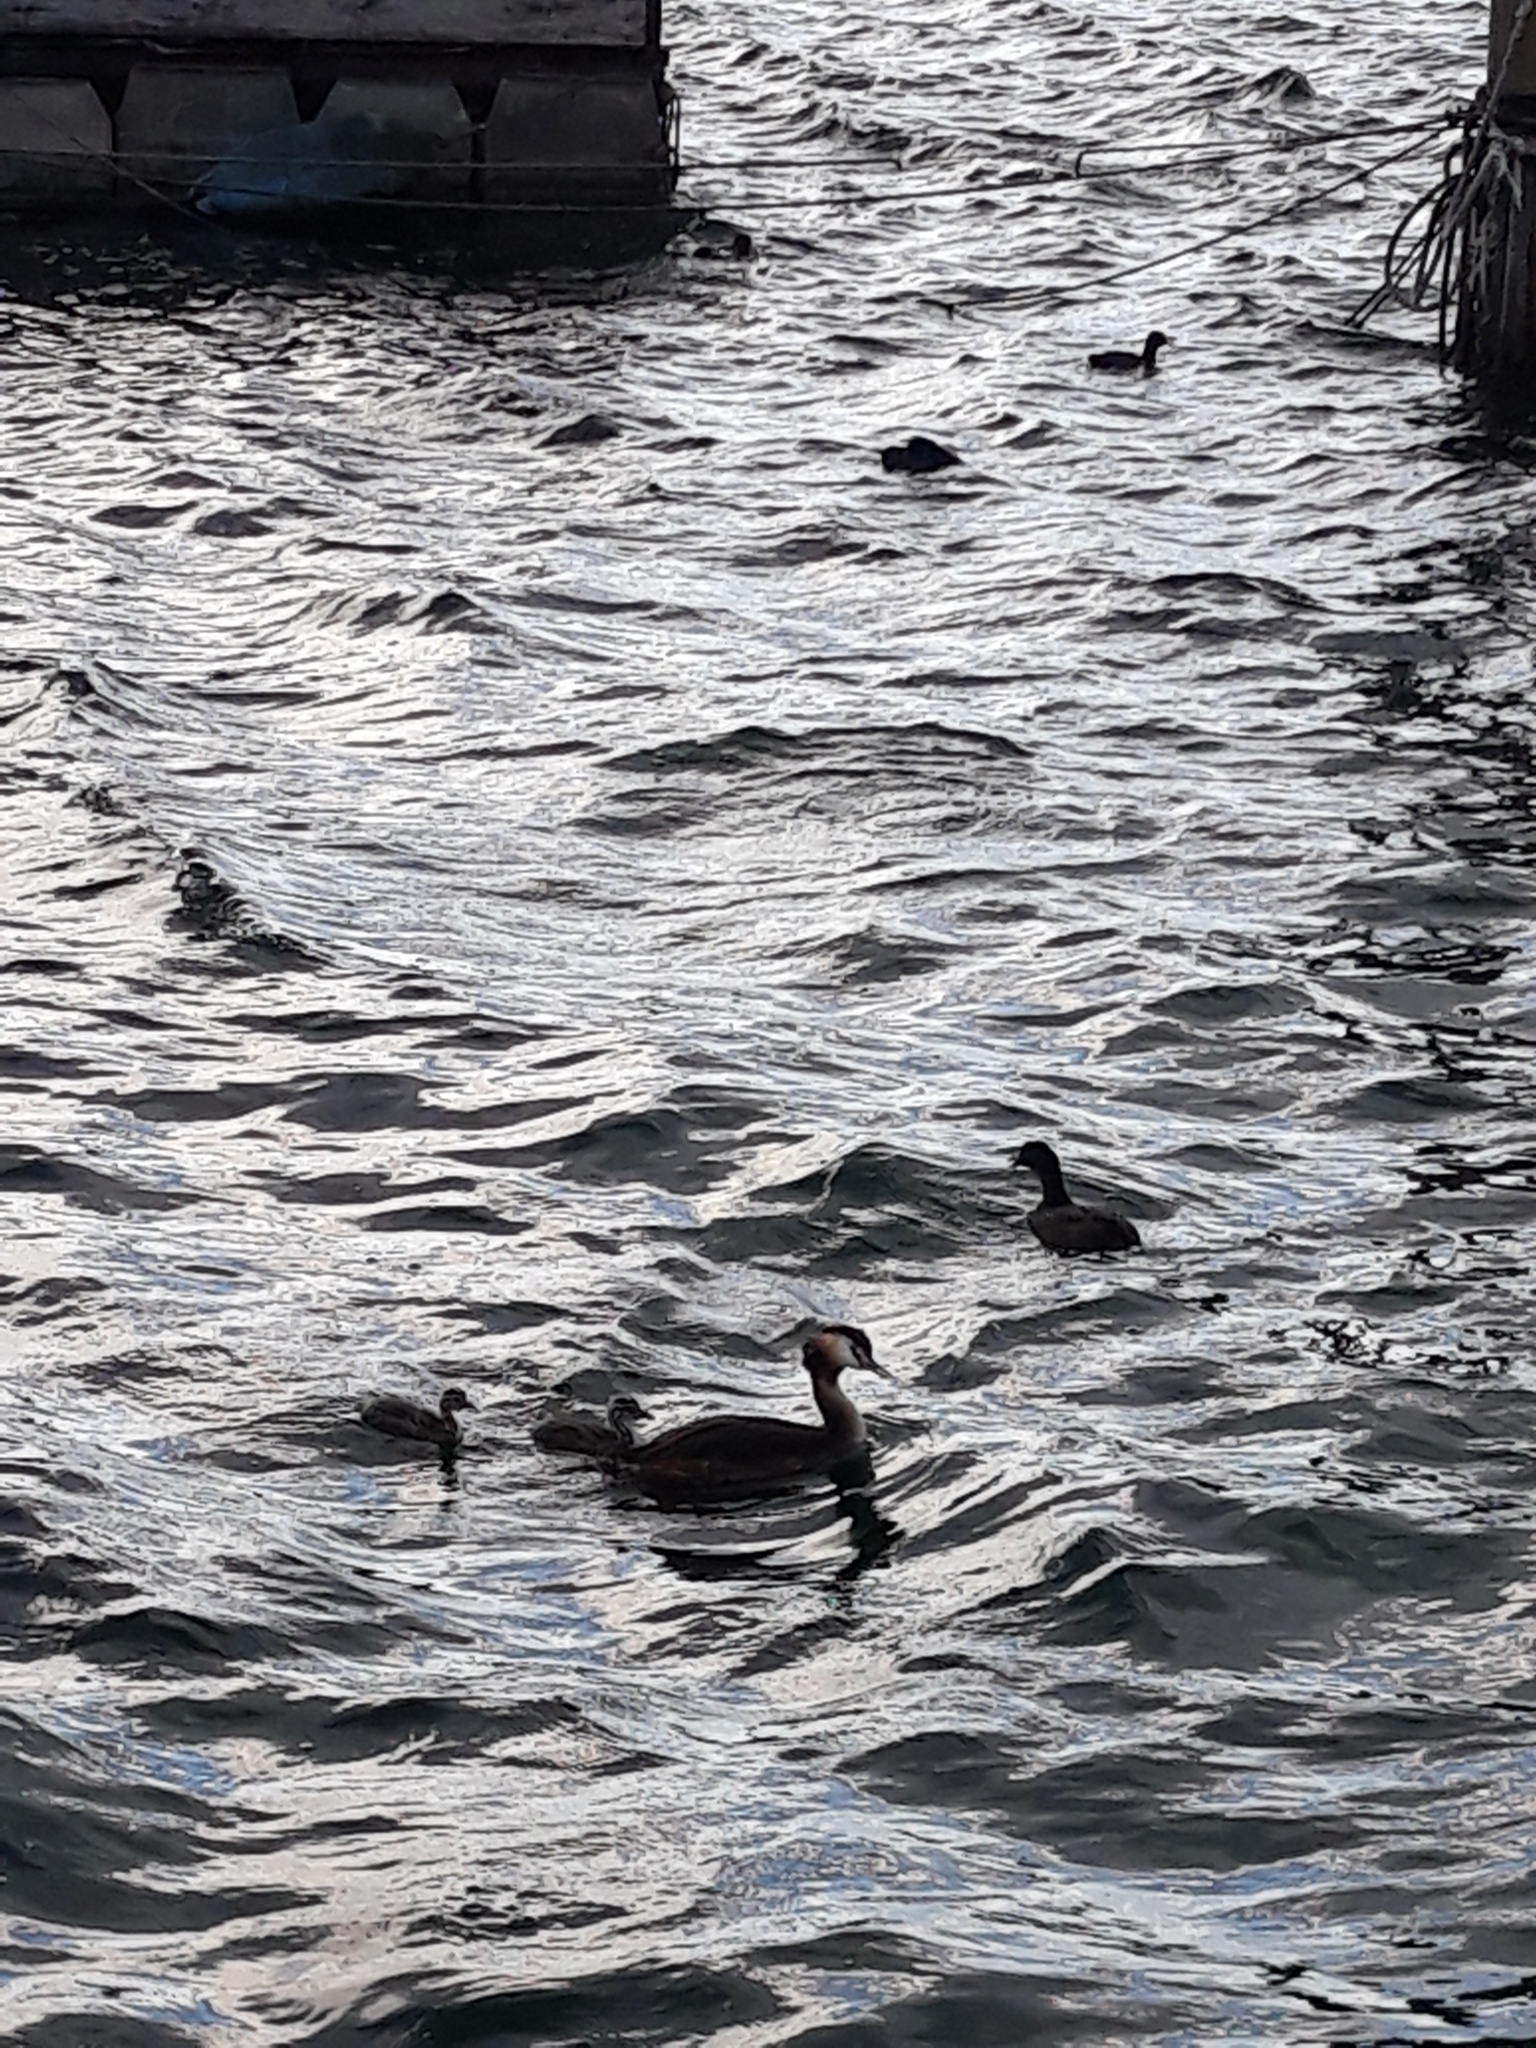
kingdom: Animalia
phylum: Chordata
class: Aves
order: Podicipediformes
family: Podicipedidae
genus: Podiceps
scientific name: Podiceps cristatus
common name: Great crested grebe
